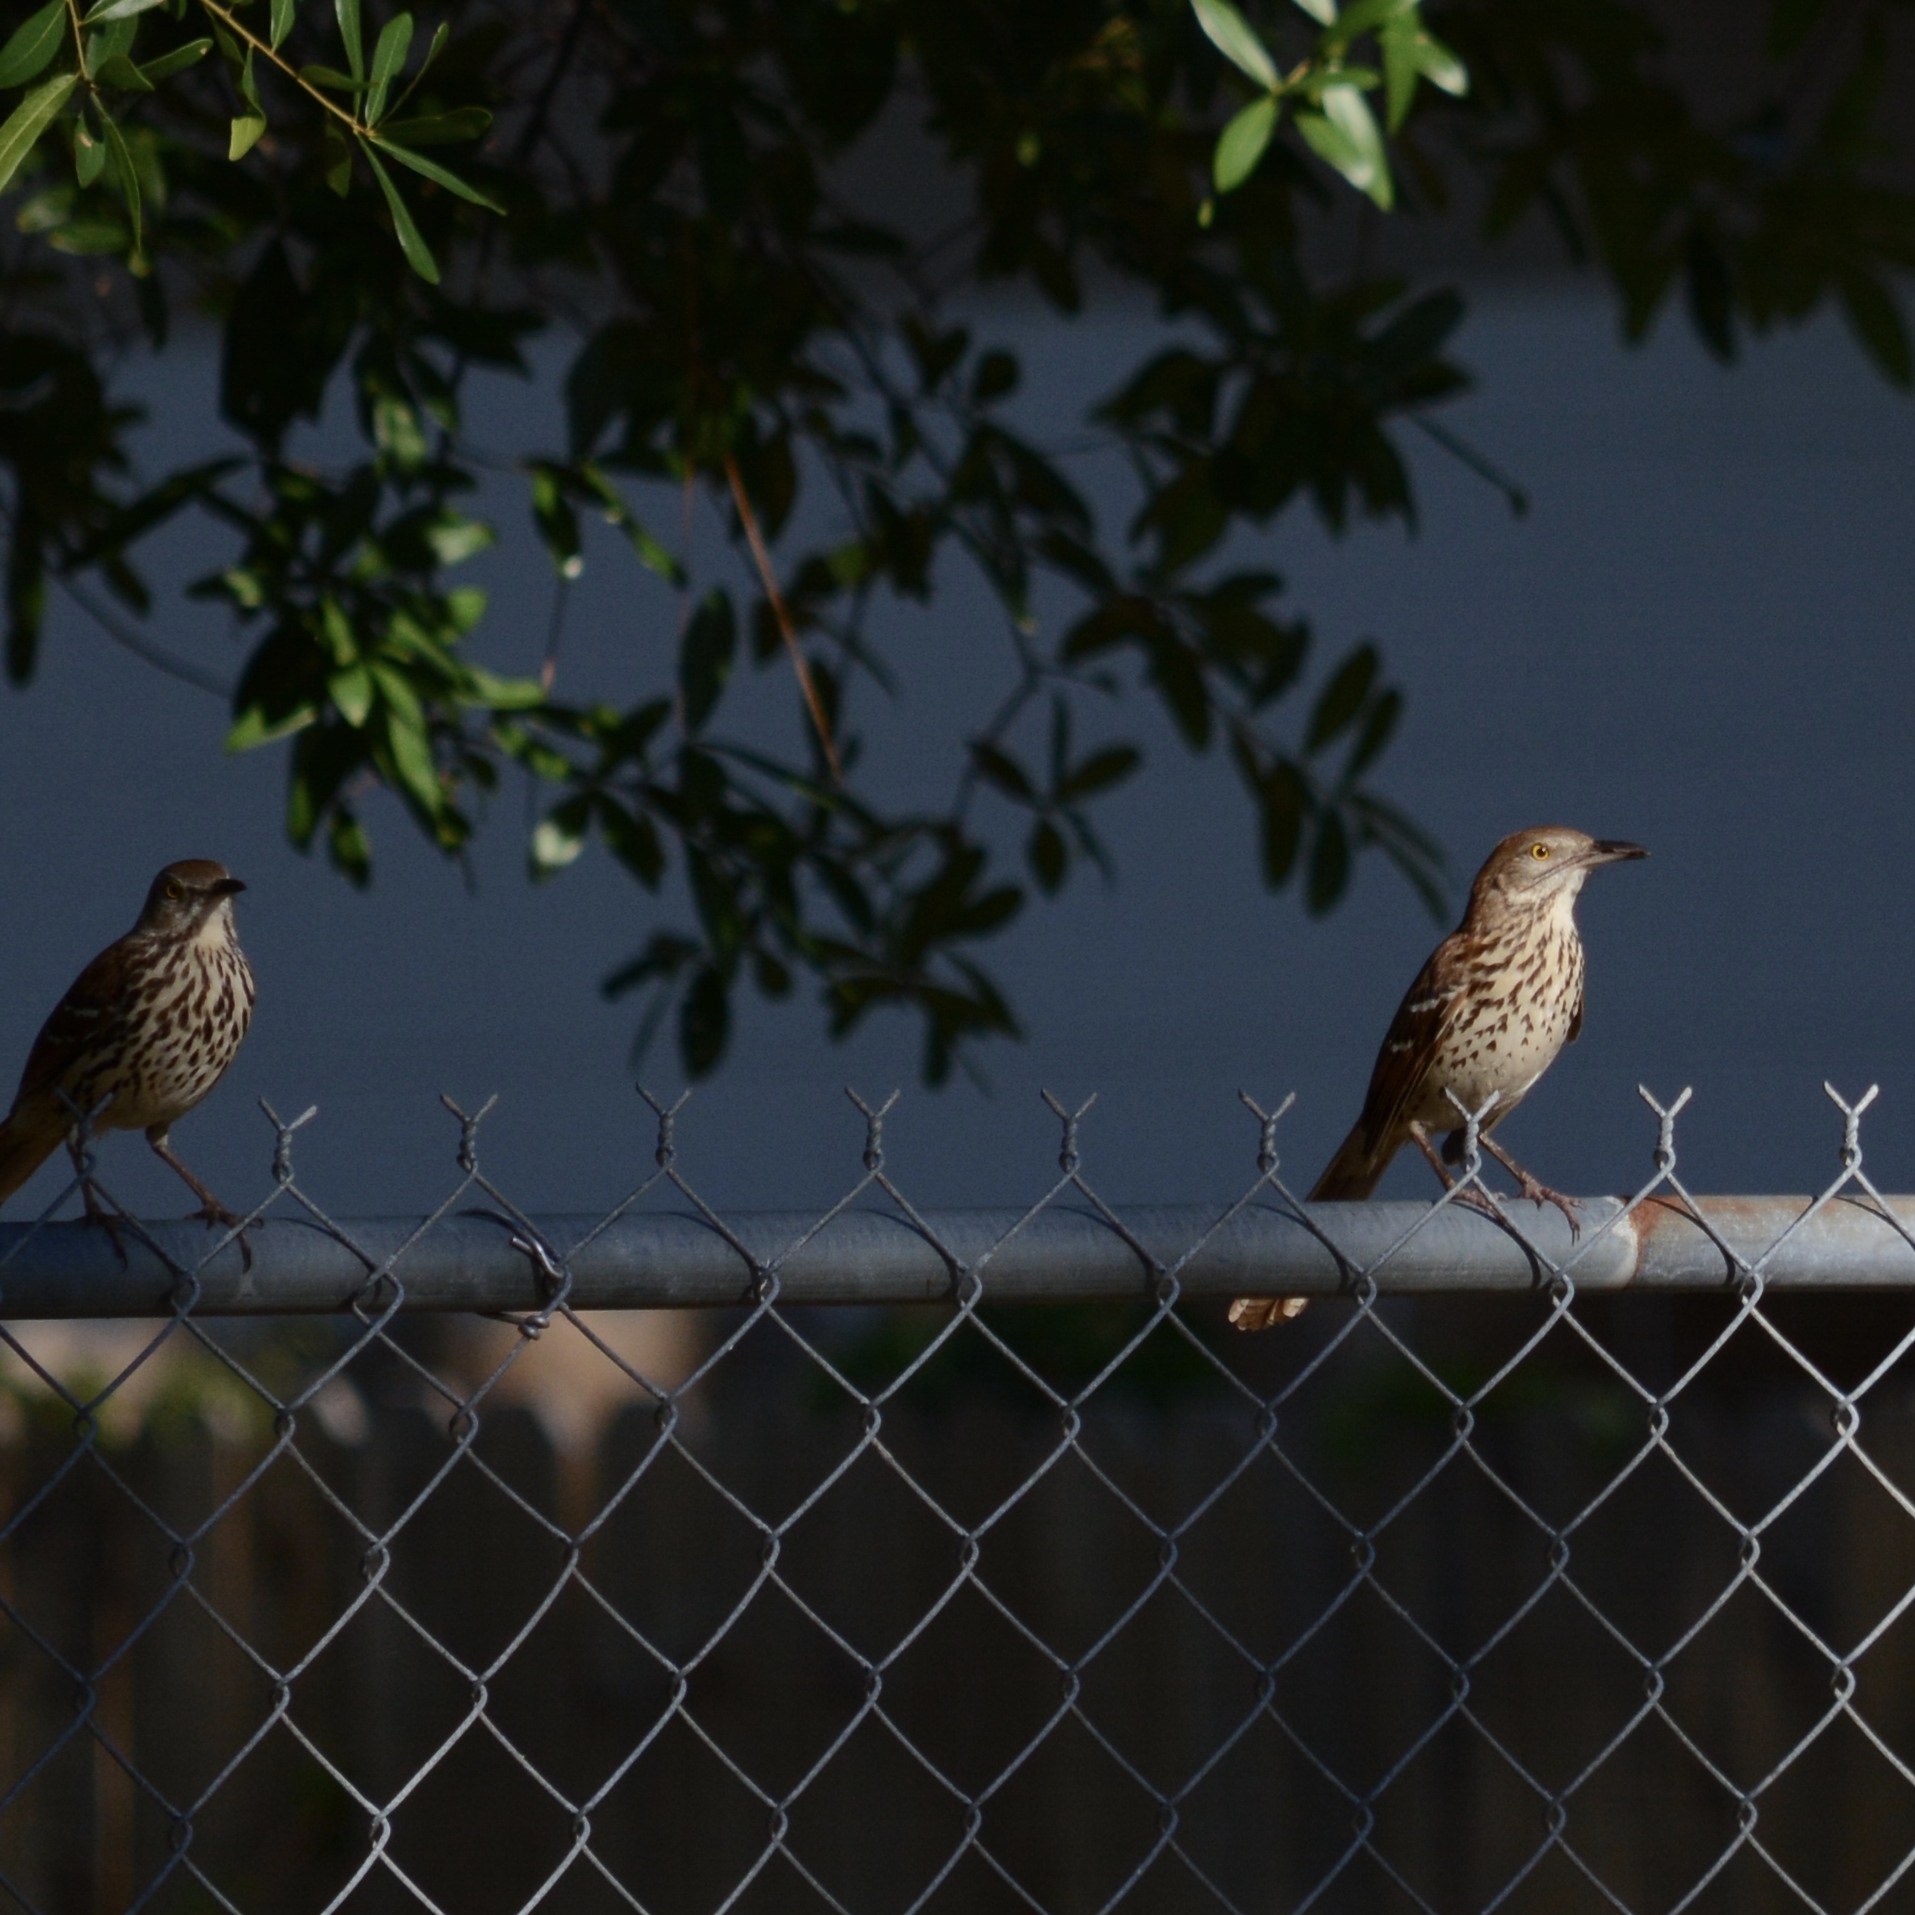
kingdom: Animalia
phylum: Chordata
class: Aves
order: Passeriformes
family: Mimidae
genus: Toxostoma
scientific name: Toxostoma rufum
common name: Brown thrasher
